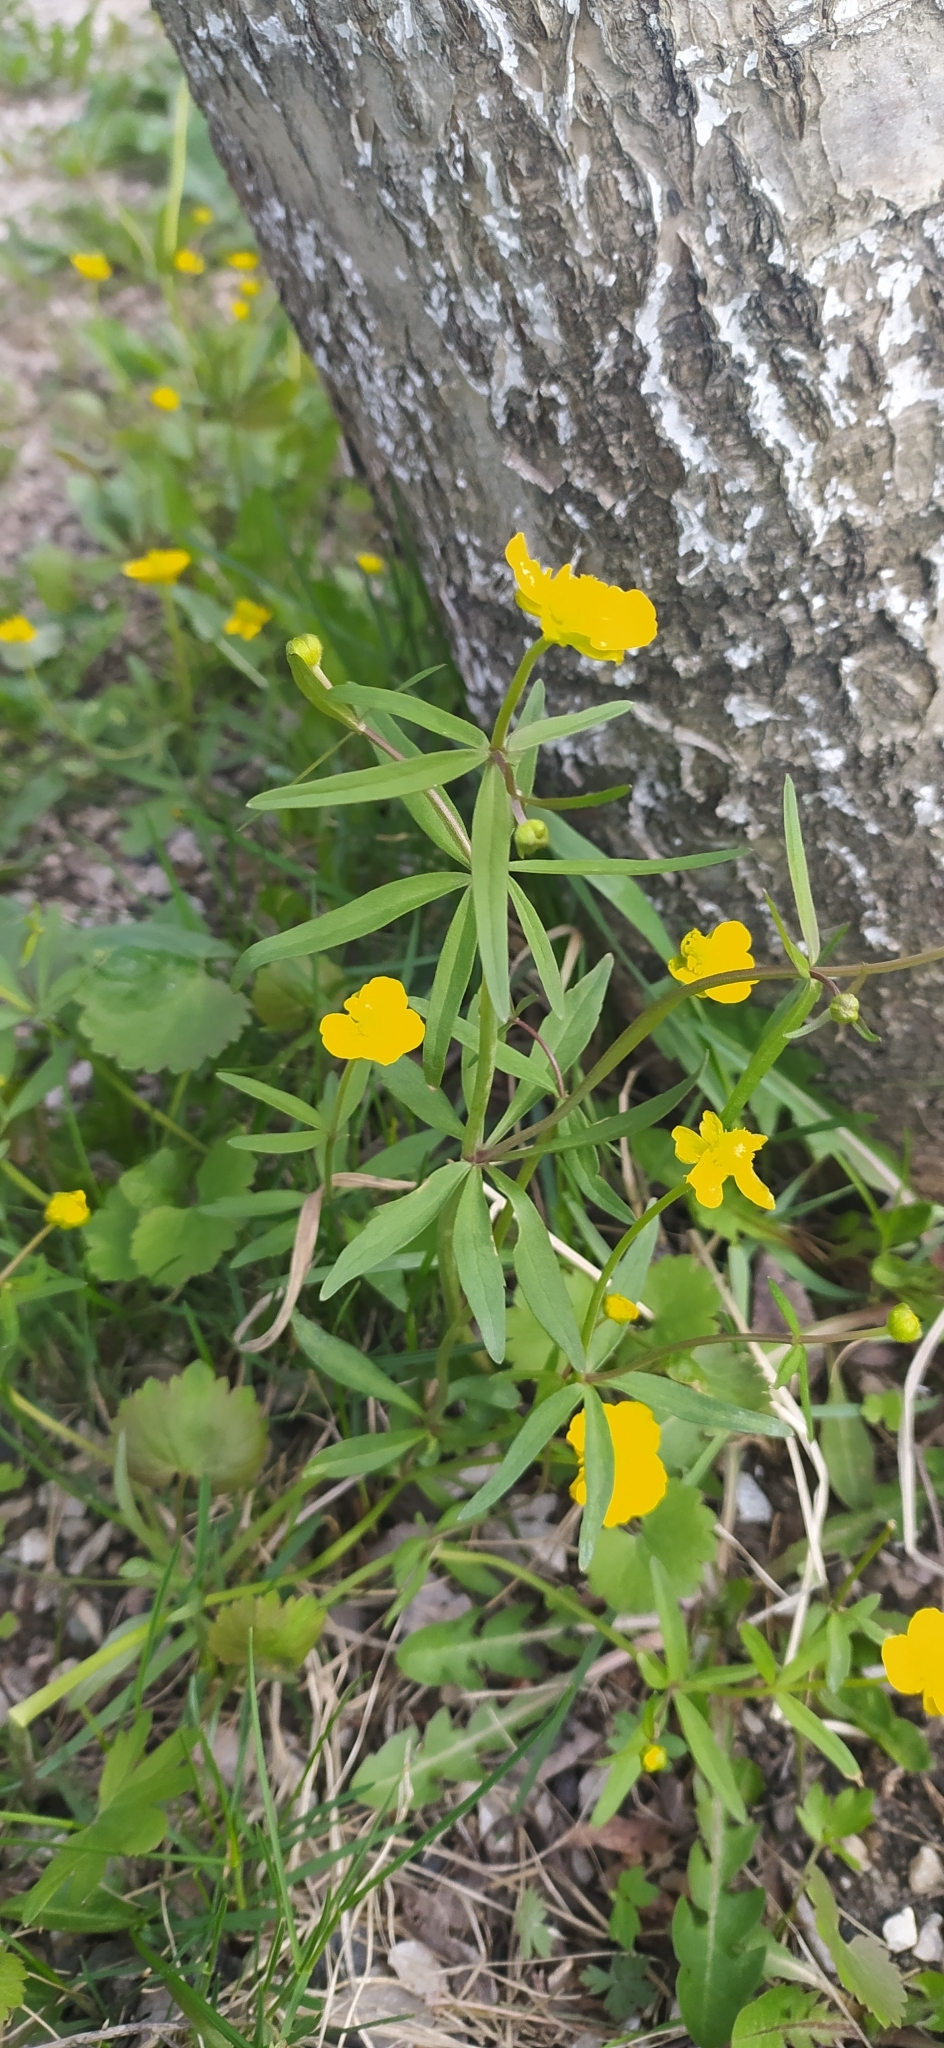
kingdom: Plantae
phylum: Tracheophyta
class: Magnoliopsida
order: Ranunculales
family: Ranunculaceae
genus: Ranunculus
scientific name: Ranunculus monophyllus
